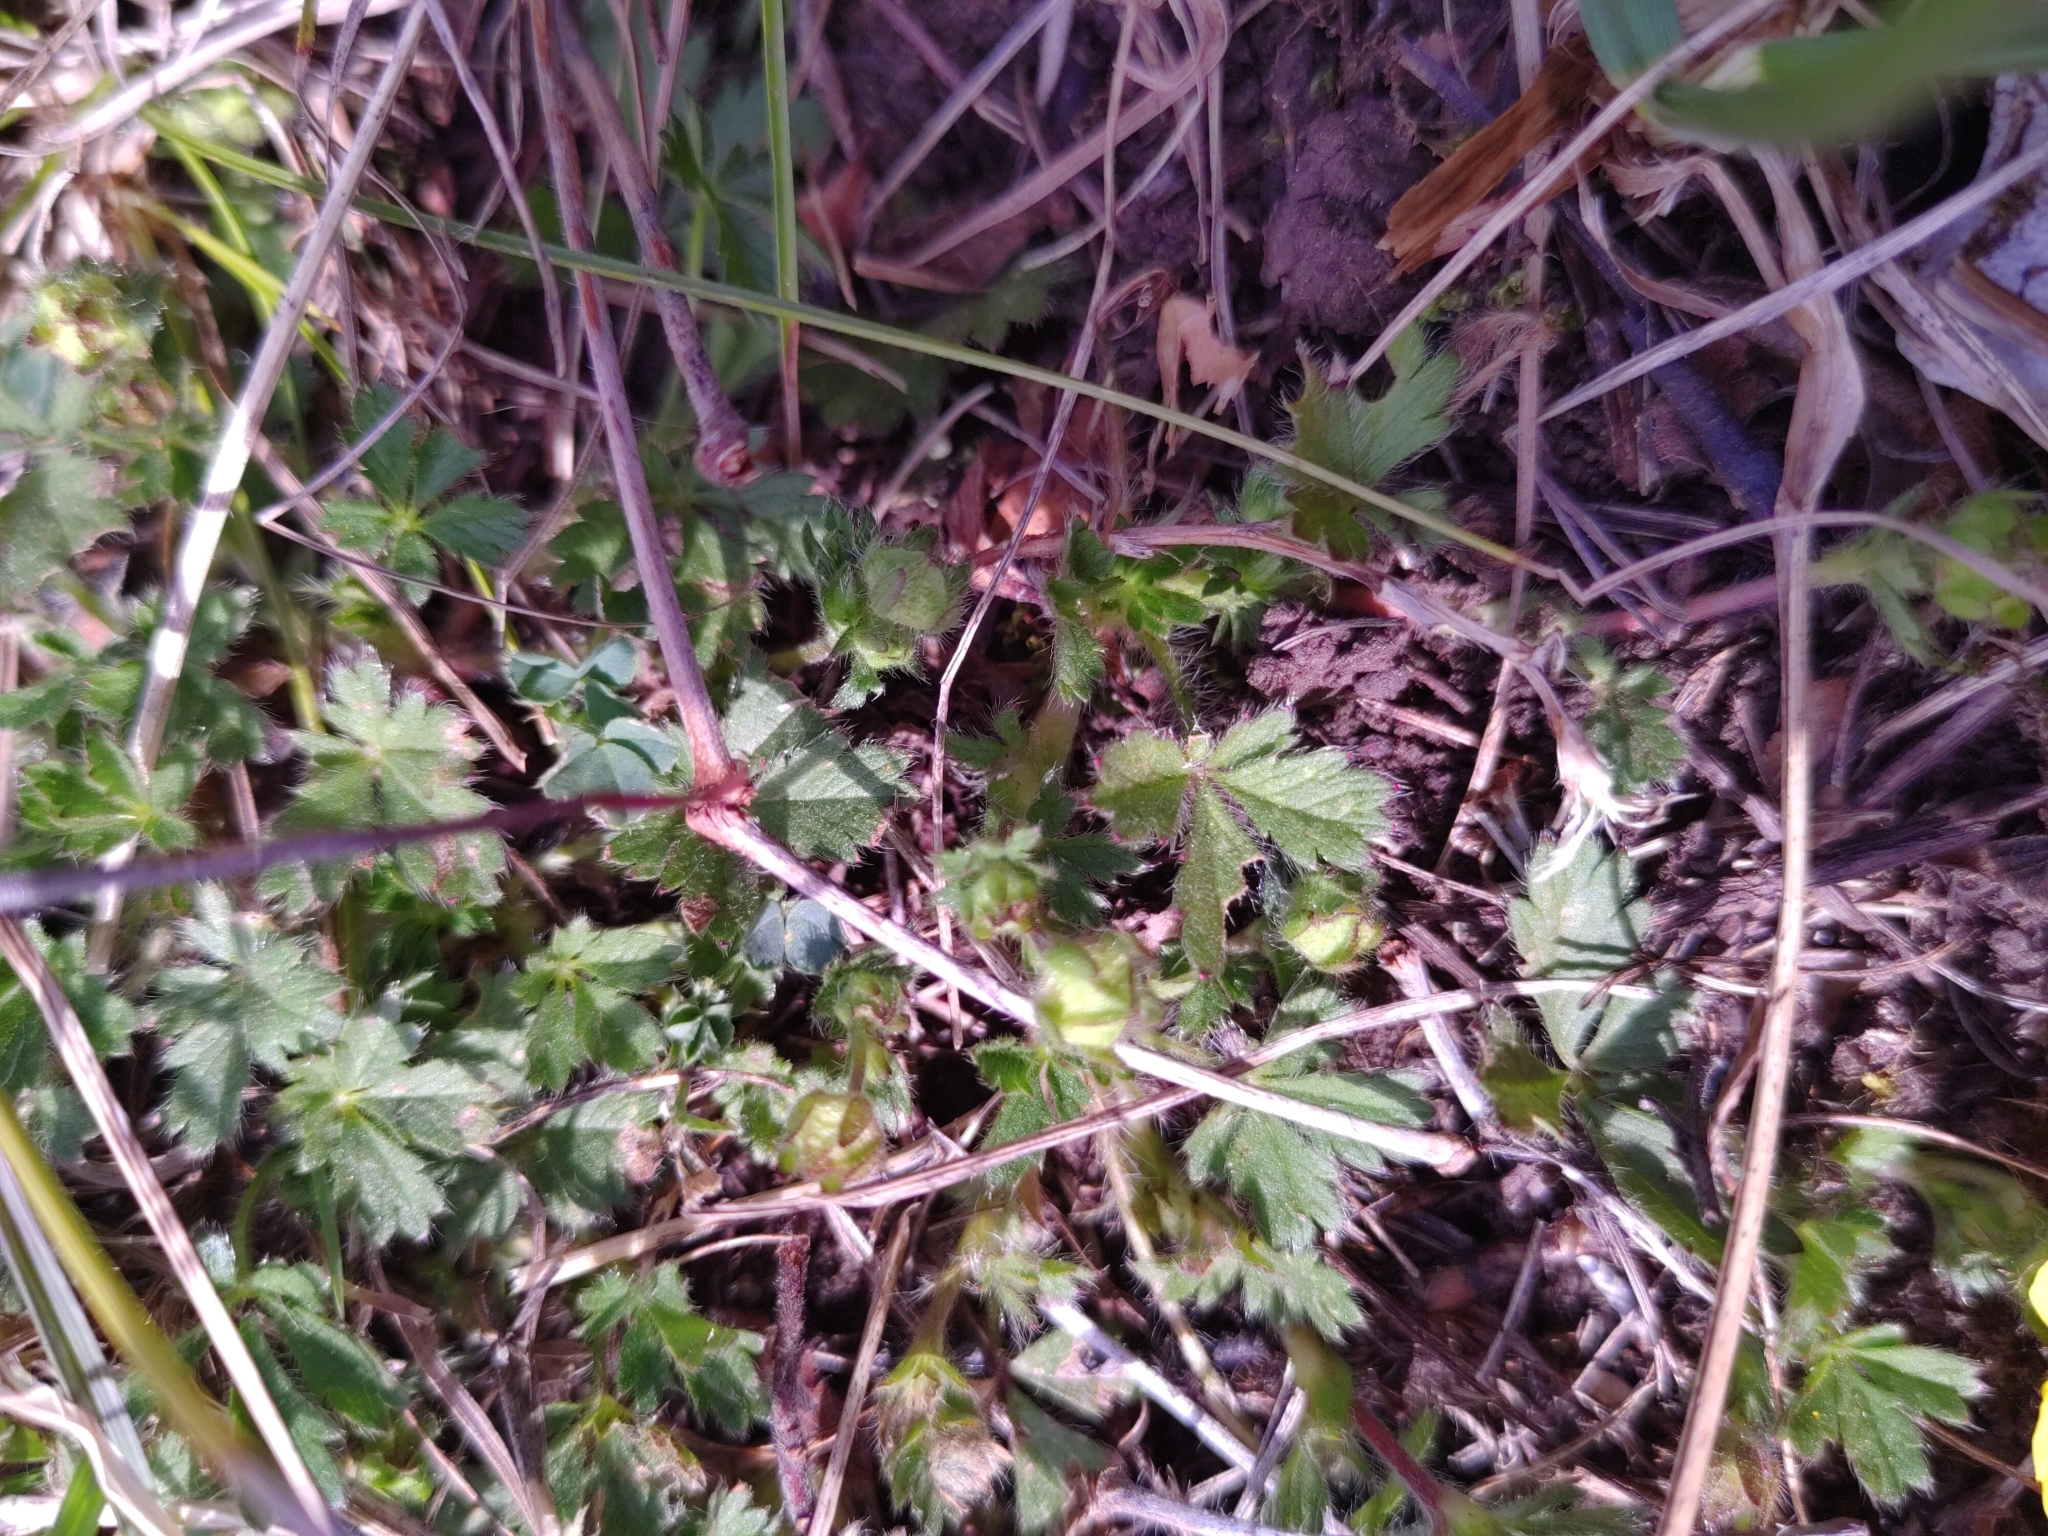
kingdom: Plantae
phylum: Tracheophyta
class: Magnoliopsida
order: Rosales
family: Rosaceae
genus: Potentilla
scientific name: Potentilla verna
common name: Spring cinquefoil
